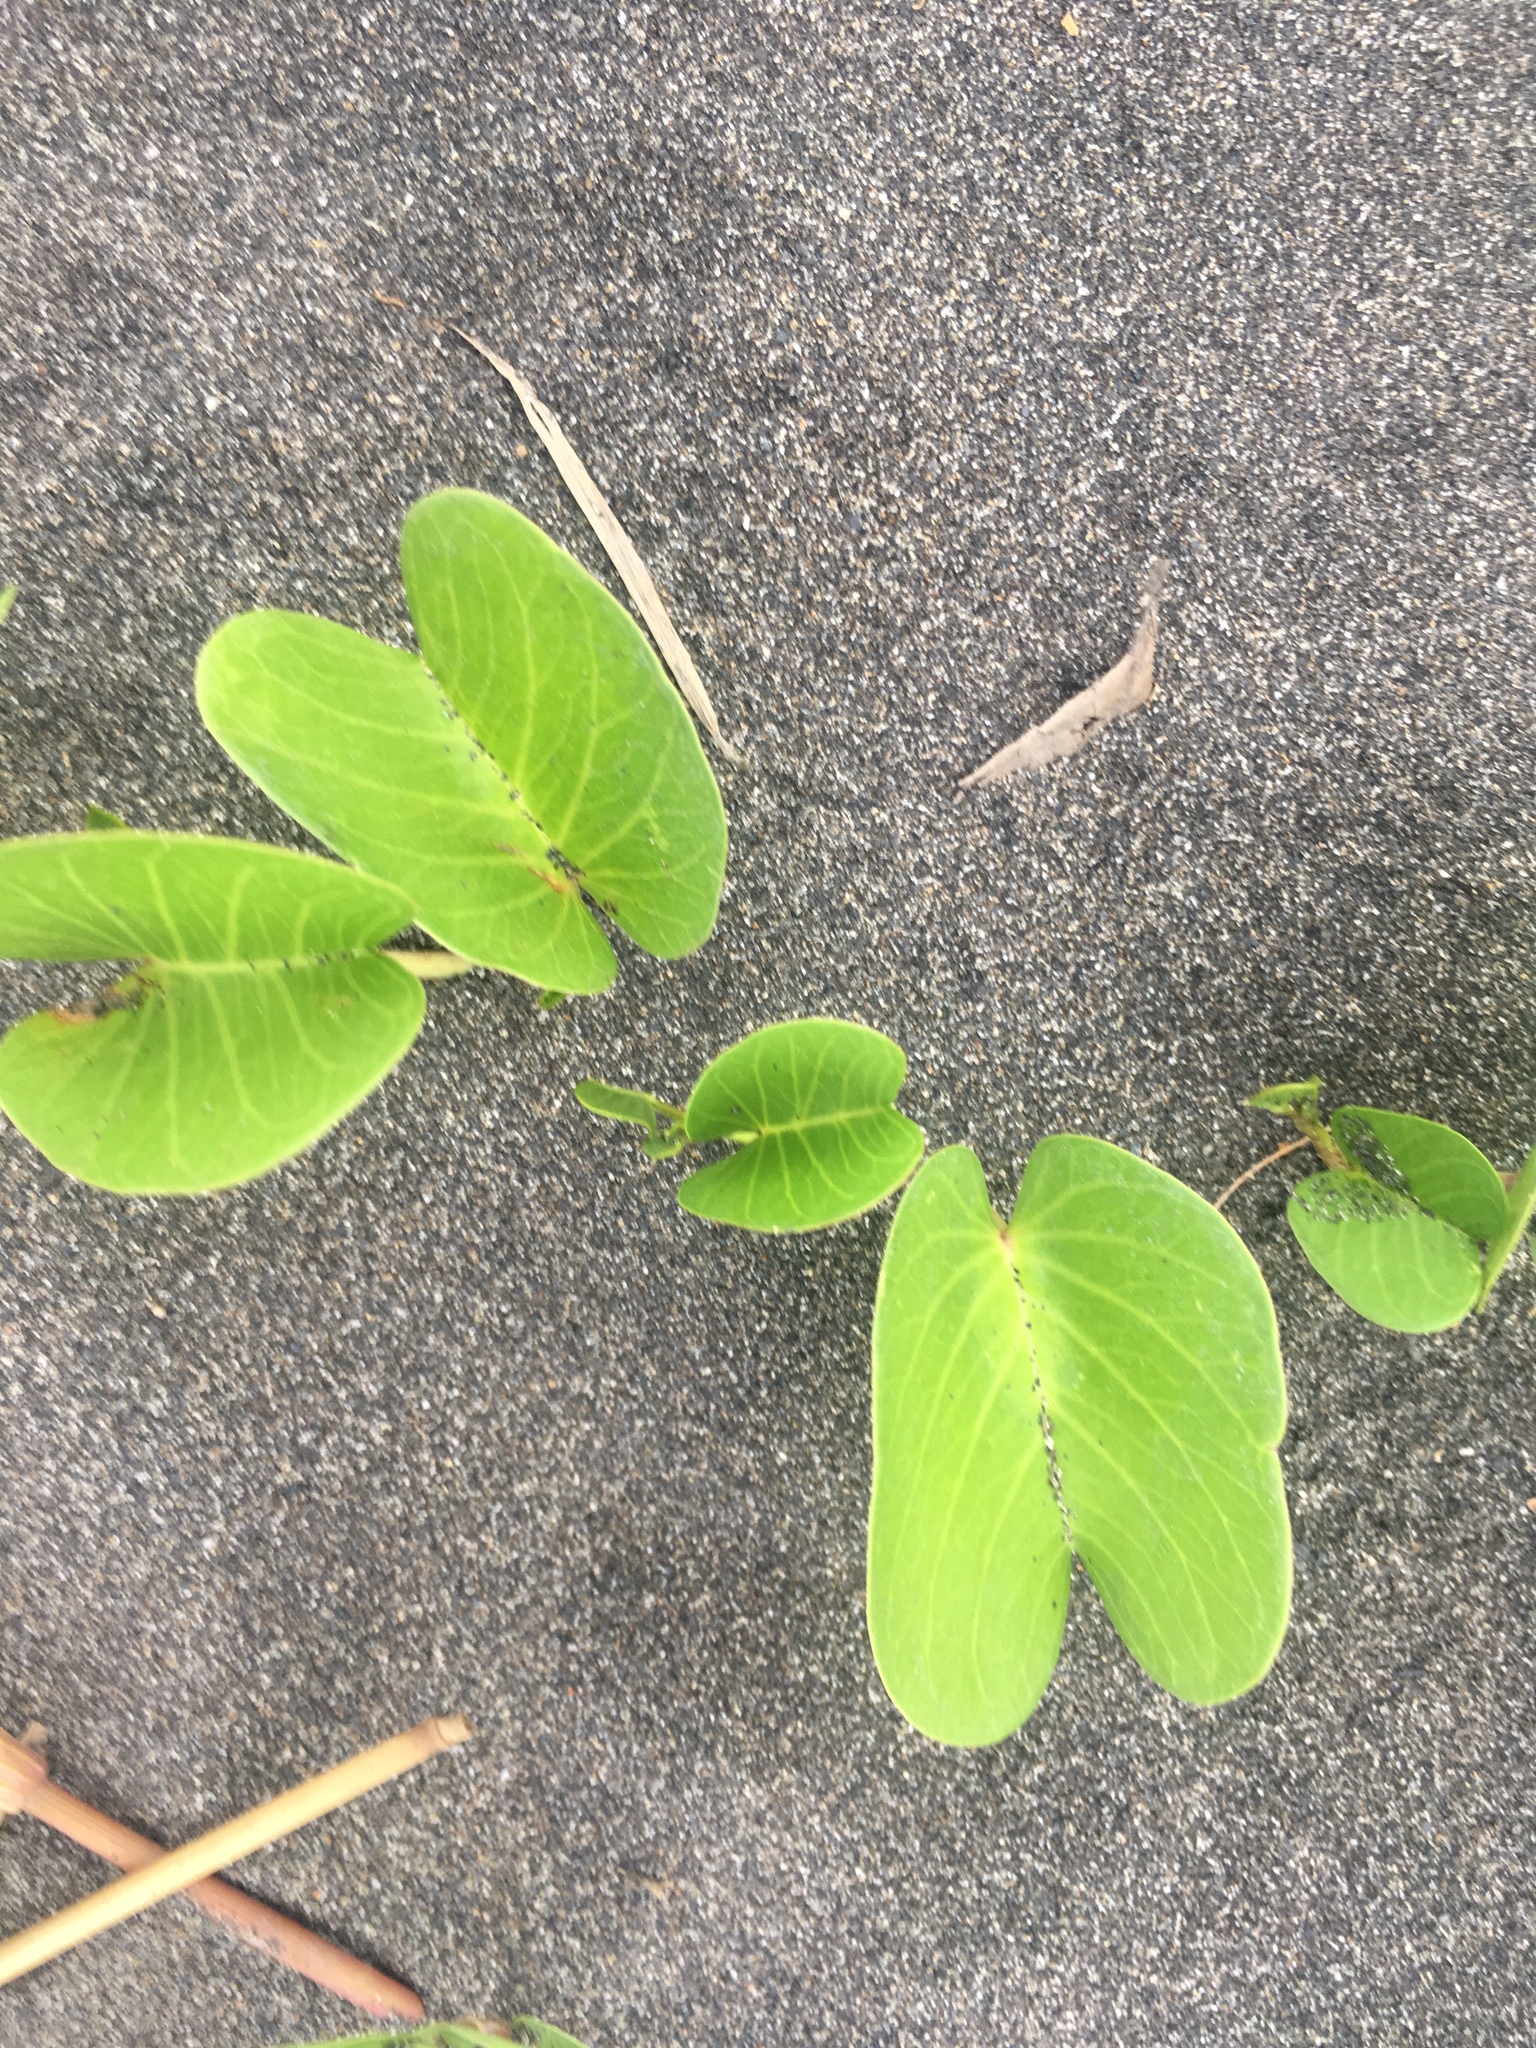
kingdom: Plantae
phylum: Tracheophyta
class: Magnoliopsida
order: Solanales
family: Convolvulaceae
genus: Ipomoea
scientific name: Ipomoea pes-caprae
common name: Beach morning glory
